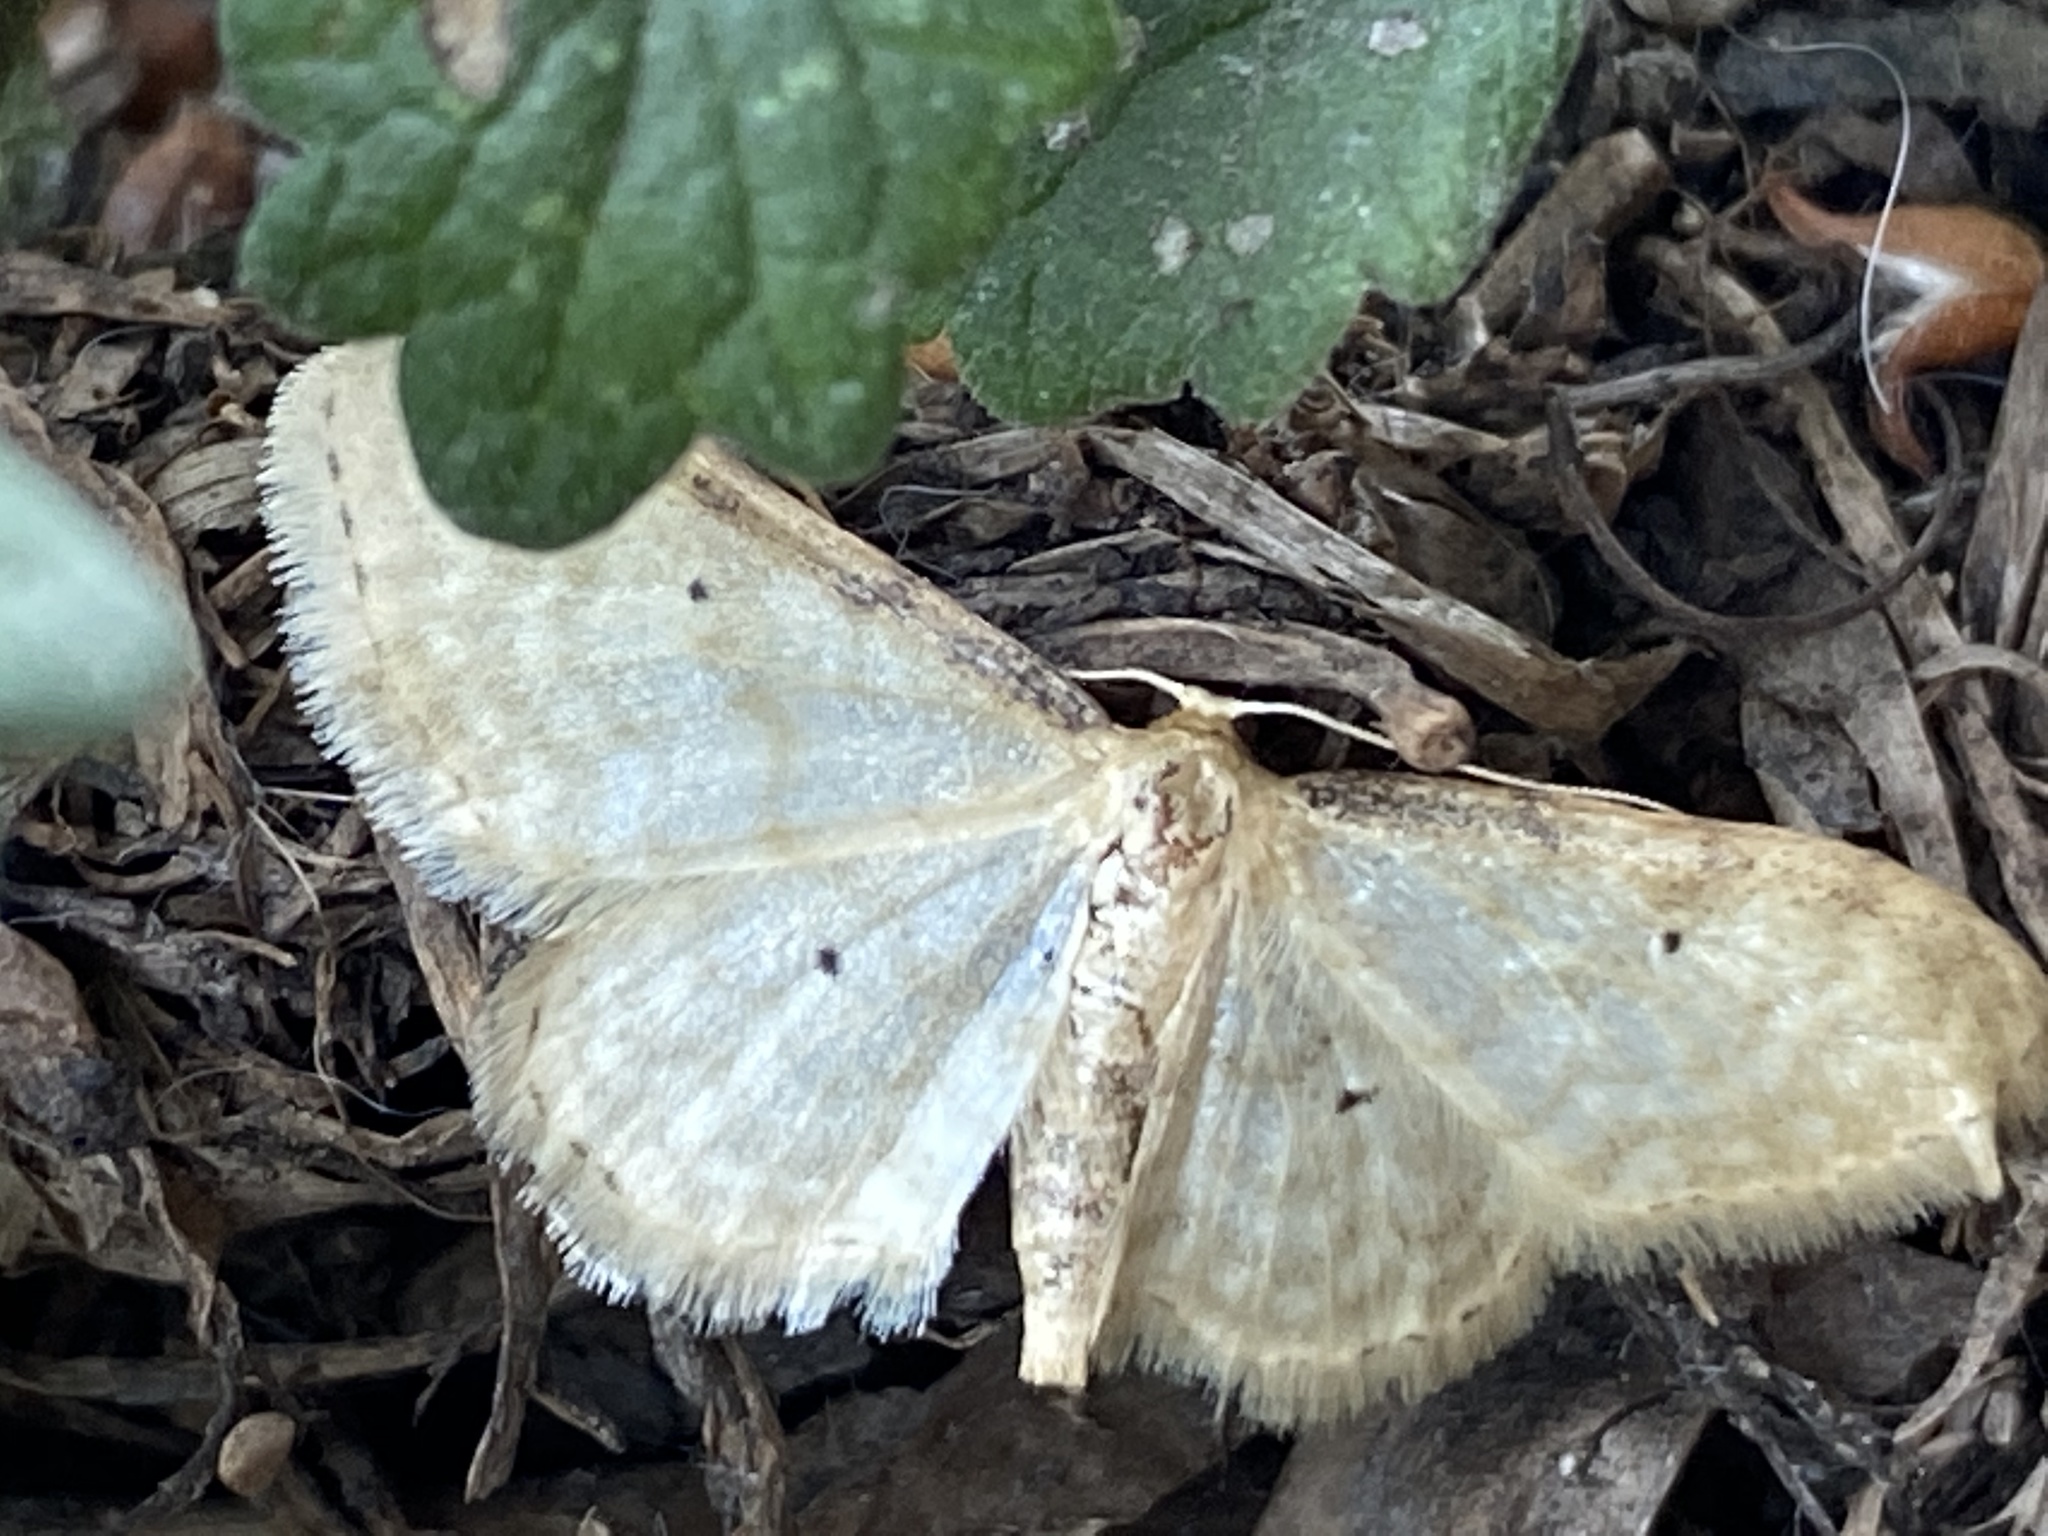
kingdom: Animalia
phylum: Arthropoda
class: Insecta
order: Lepidoptera
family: Geometridae
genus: Idaea
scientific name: Idaea fuscovenosa
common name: Dwarf cream wave
